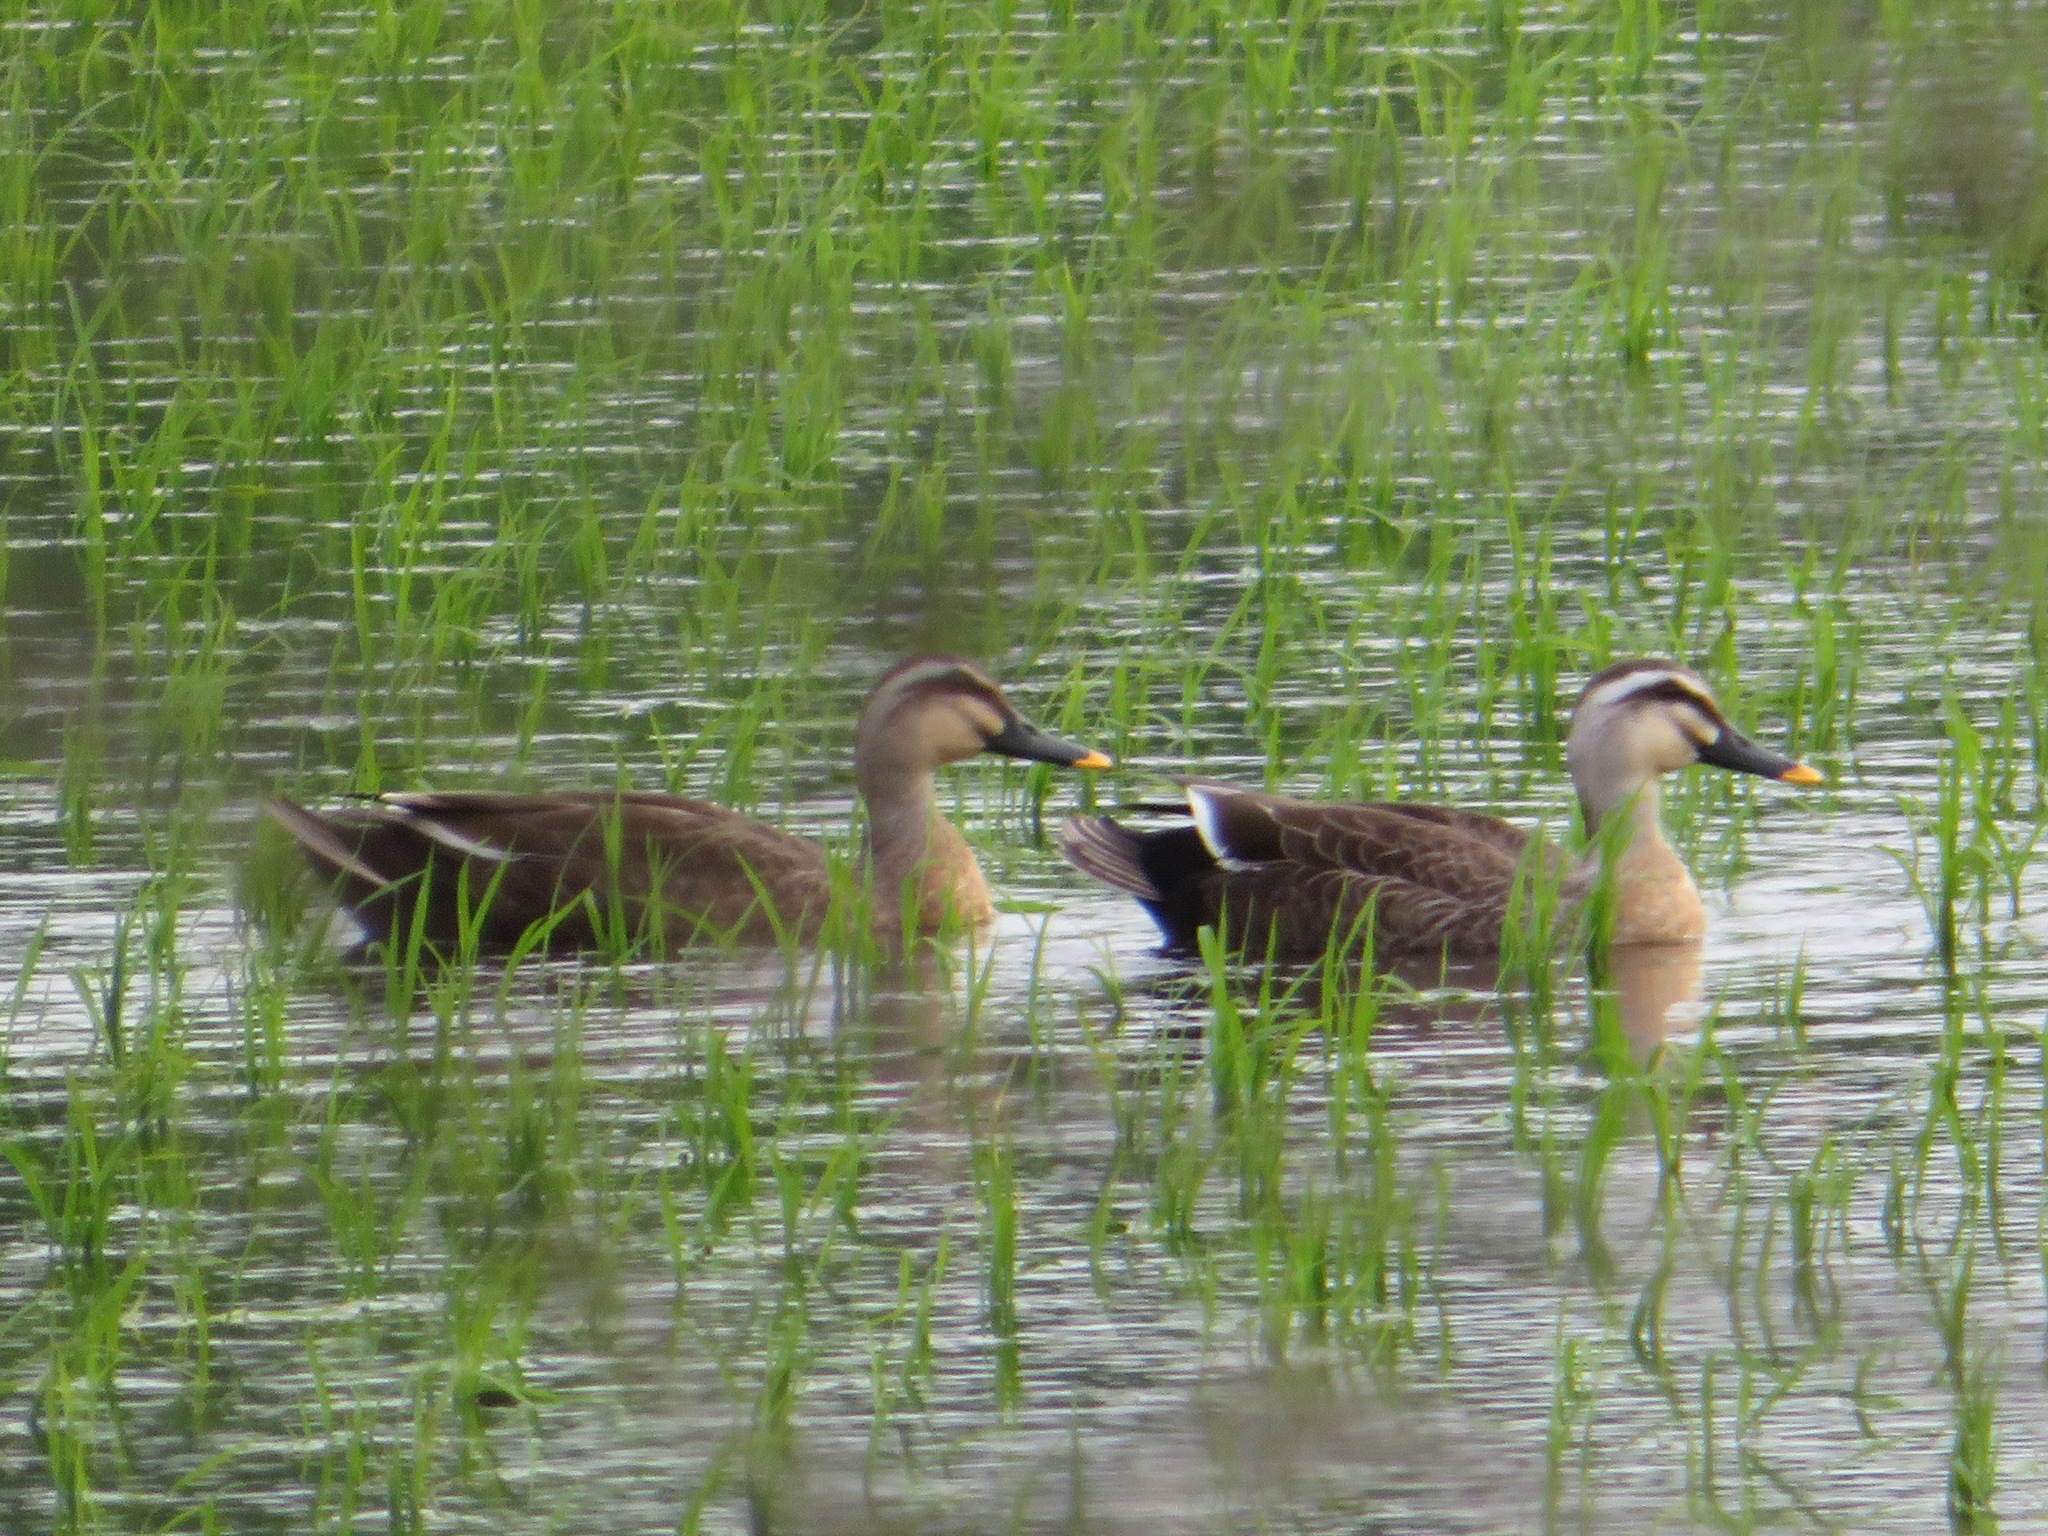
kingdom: Animalia
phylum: Chordata
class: Aves
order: Anseriformes
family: Anatidae
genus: Anas
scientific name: Anas zonorhyncha
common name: Eastern spot-billed duck
